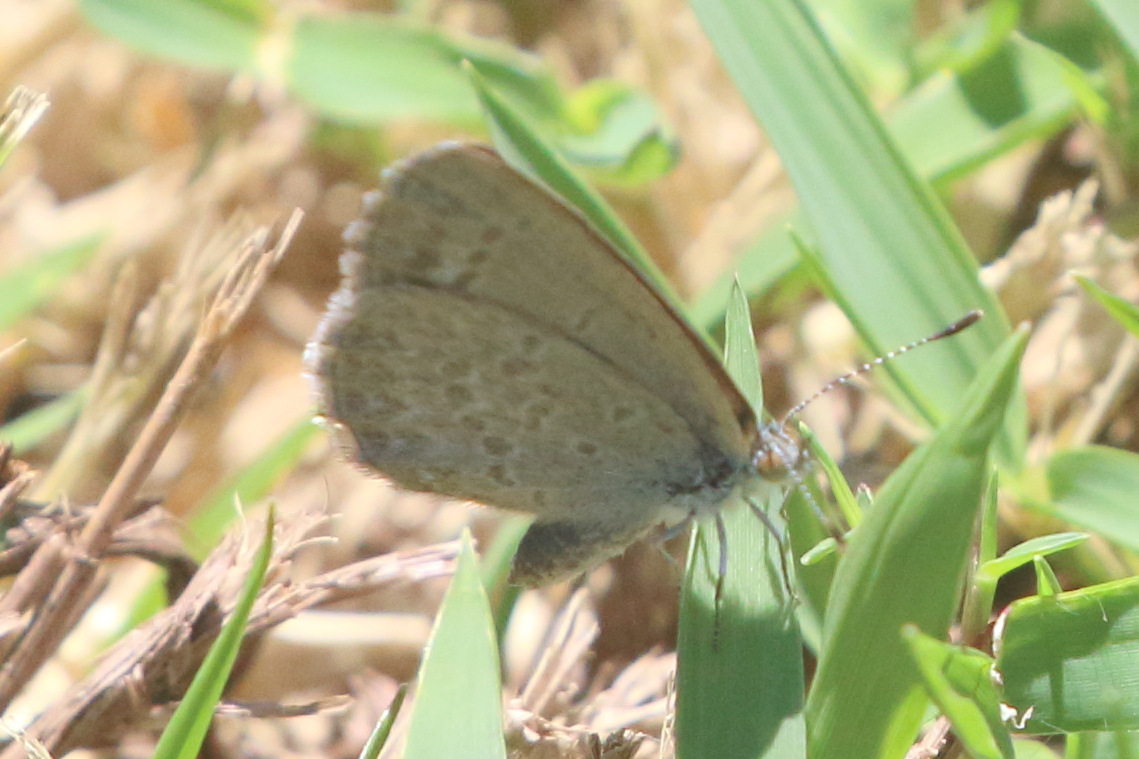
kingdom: Animalia
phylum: Arthropoda
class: Insecta
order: Lepidoptera
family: Lycaenidae
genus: Zizina
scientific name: Zizina otis
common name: Lesser grass blue
